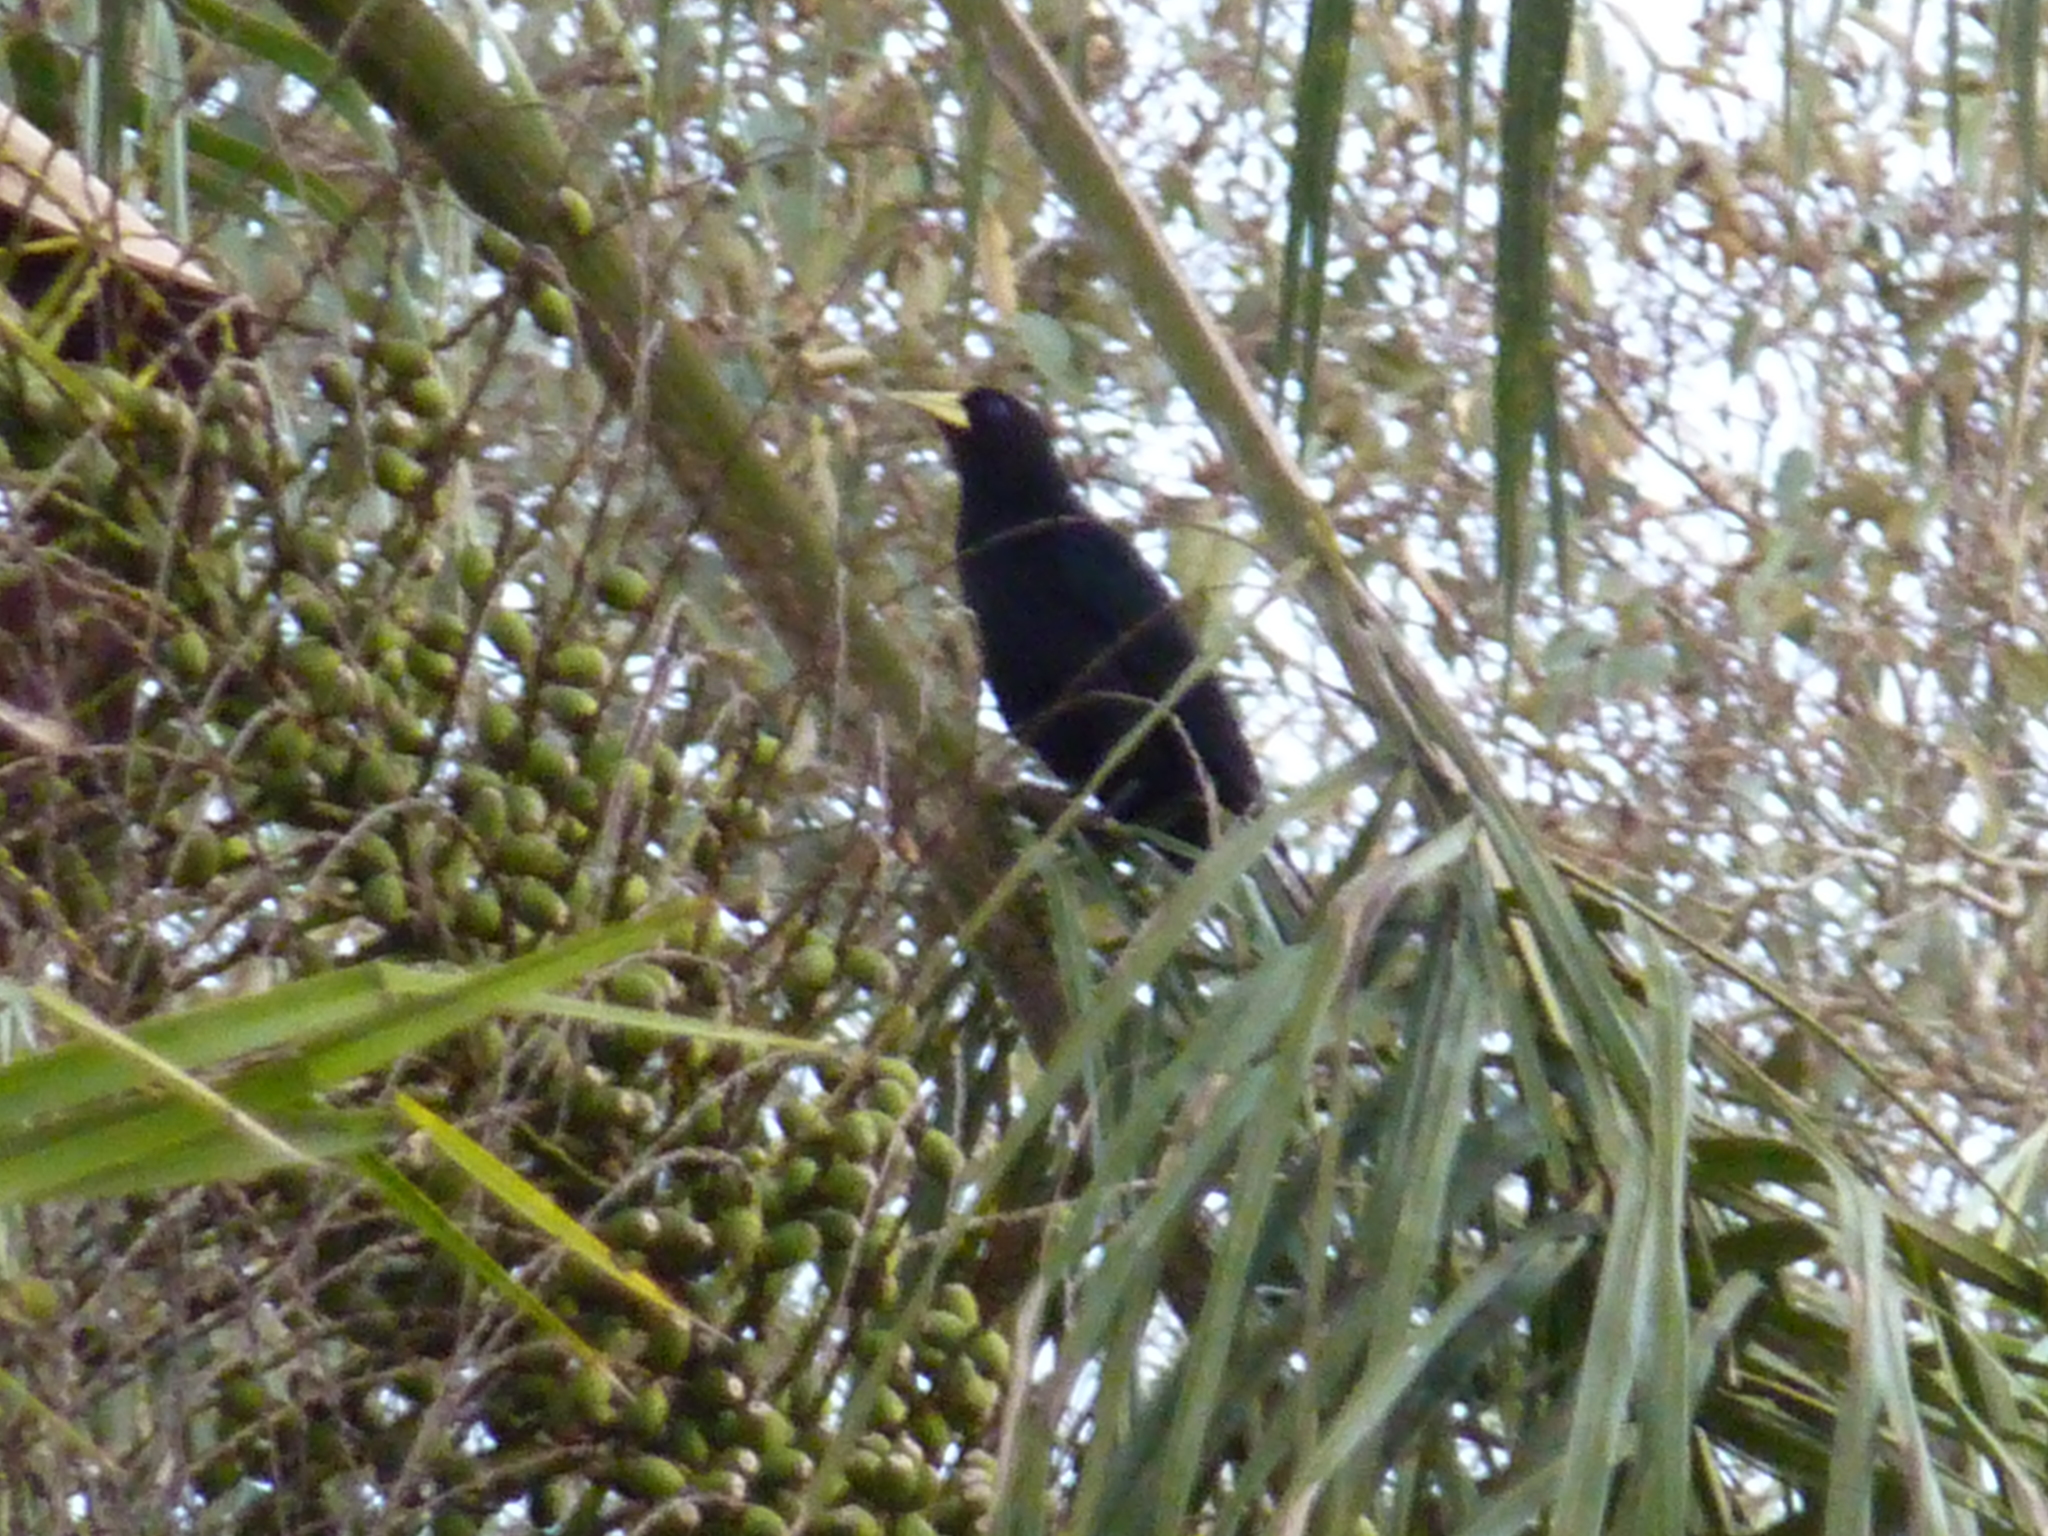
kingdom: Animalia
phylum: Chordata
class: Aves
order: Passeriformes
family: Icteridae
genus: Cacicus
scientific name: Cacicus haemorrhous
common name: Red-rumped cacique
